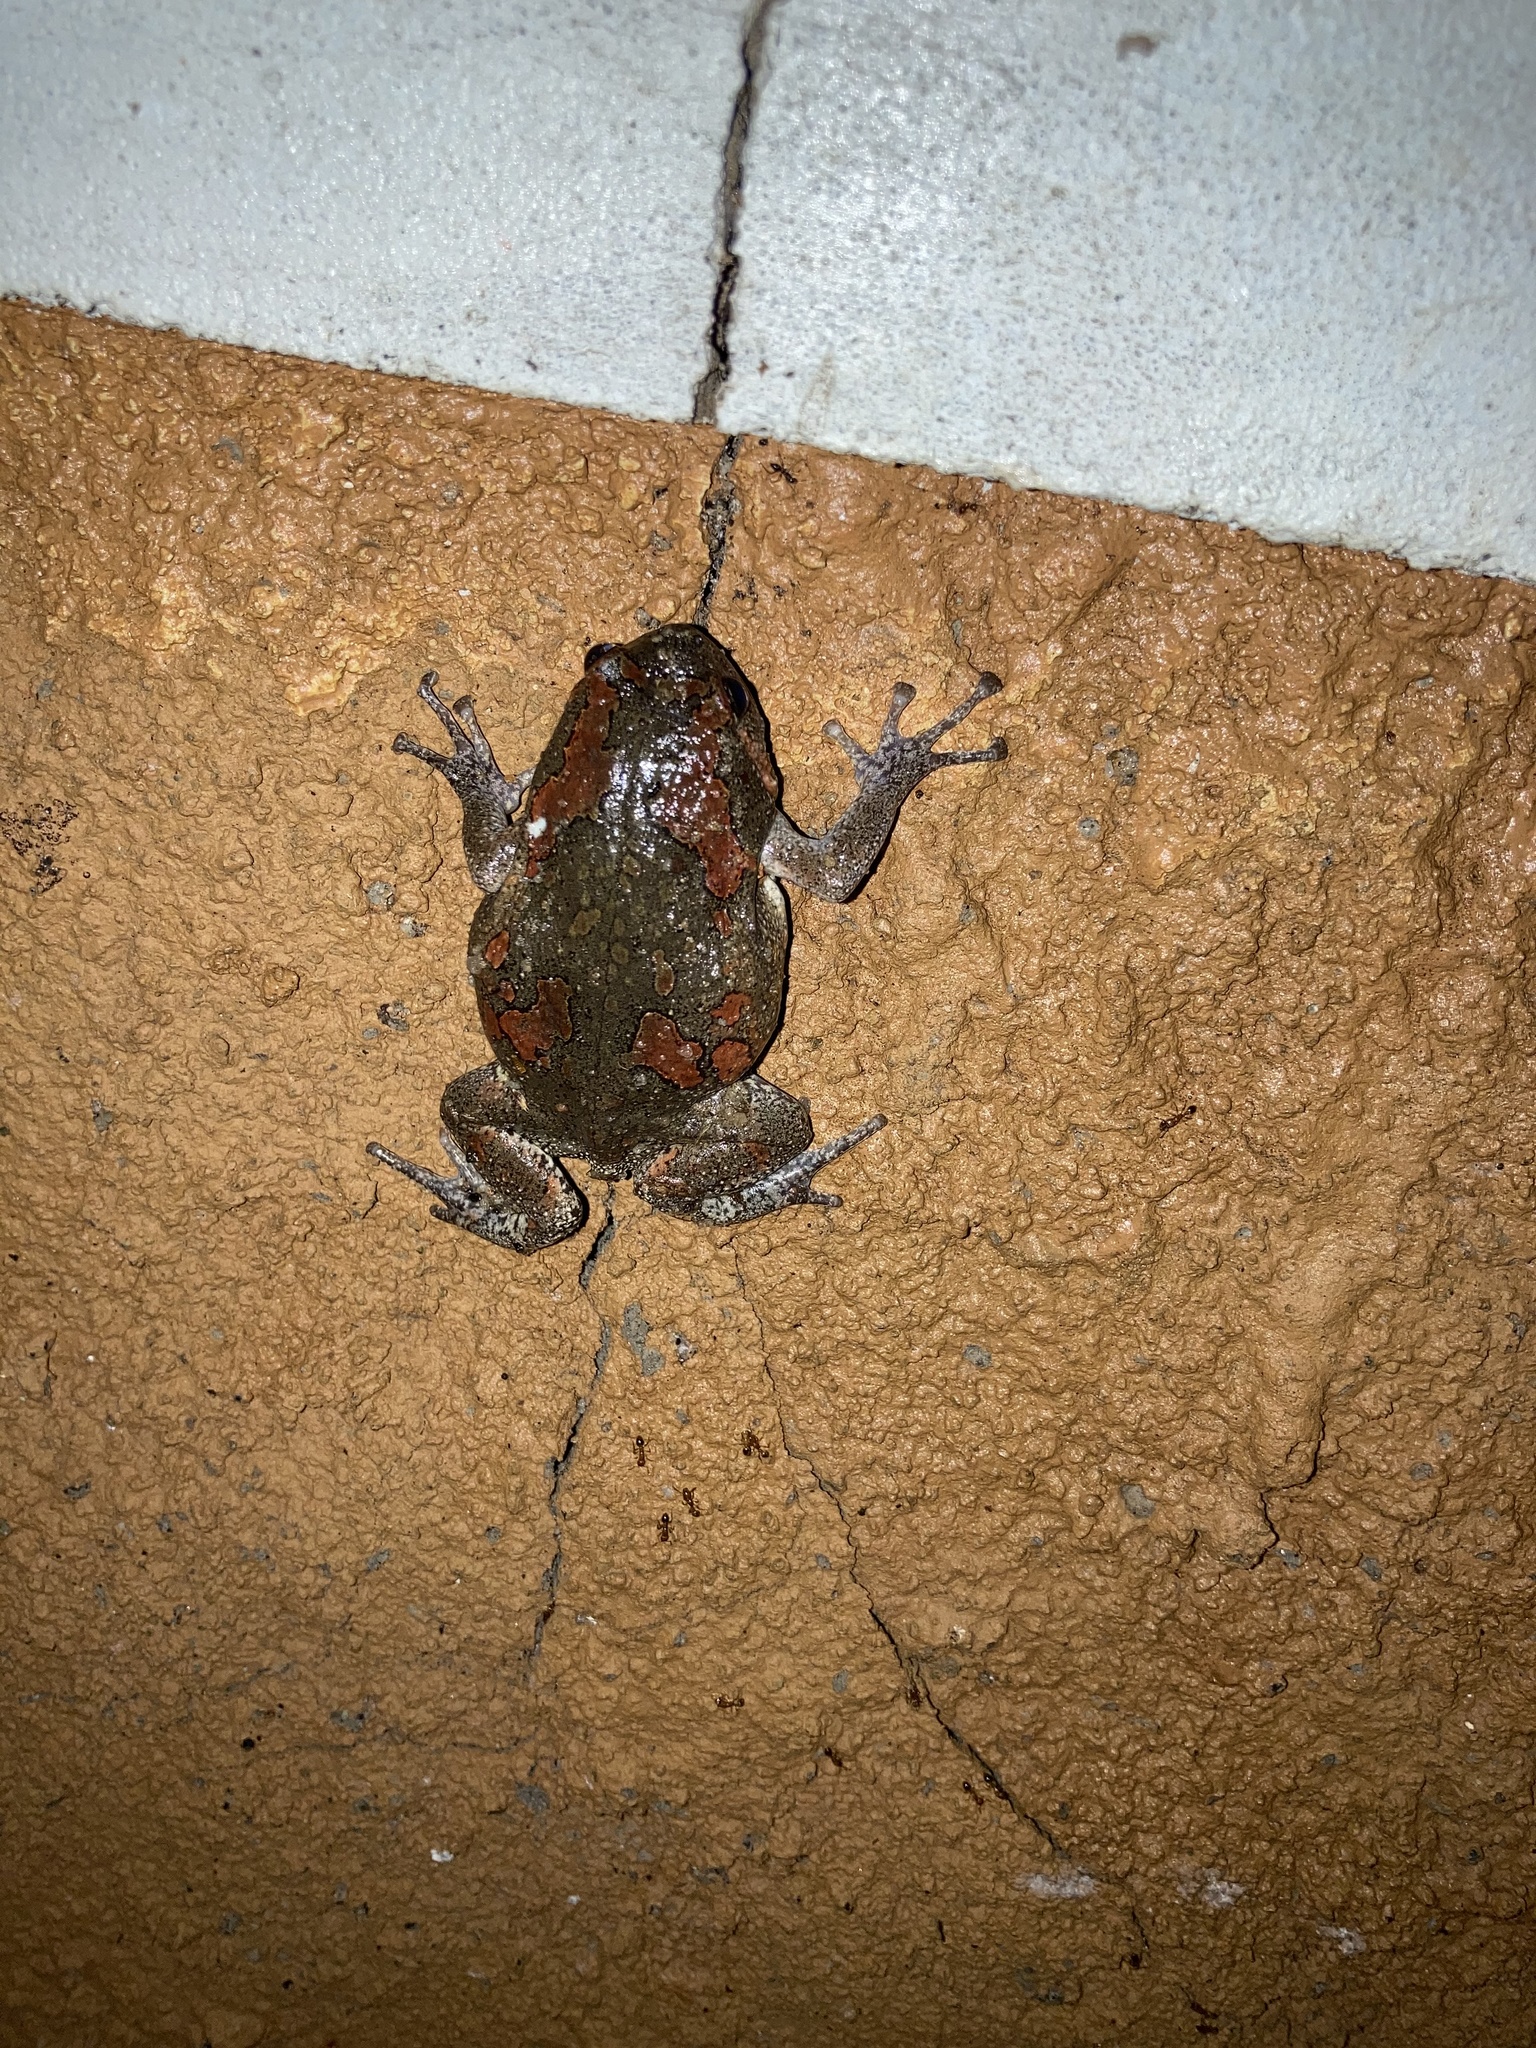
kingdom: Animalia
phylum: Chordata
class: Amphibia
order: Anura
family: Microhylidae
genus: Uperodon
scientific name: Uperodon taprobanicus
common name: Ceylon kaloula
